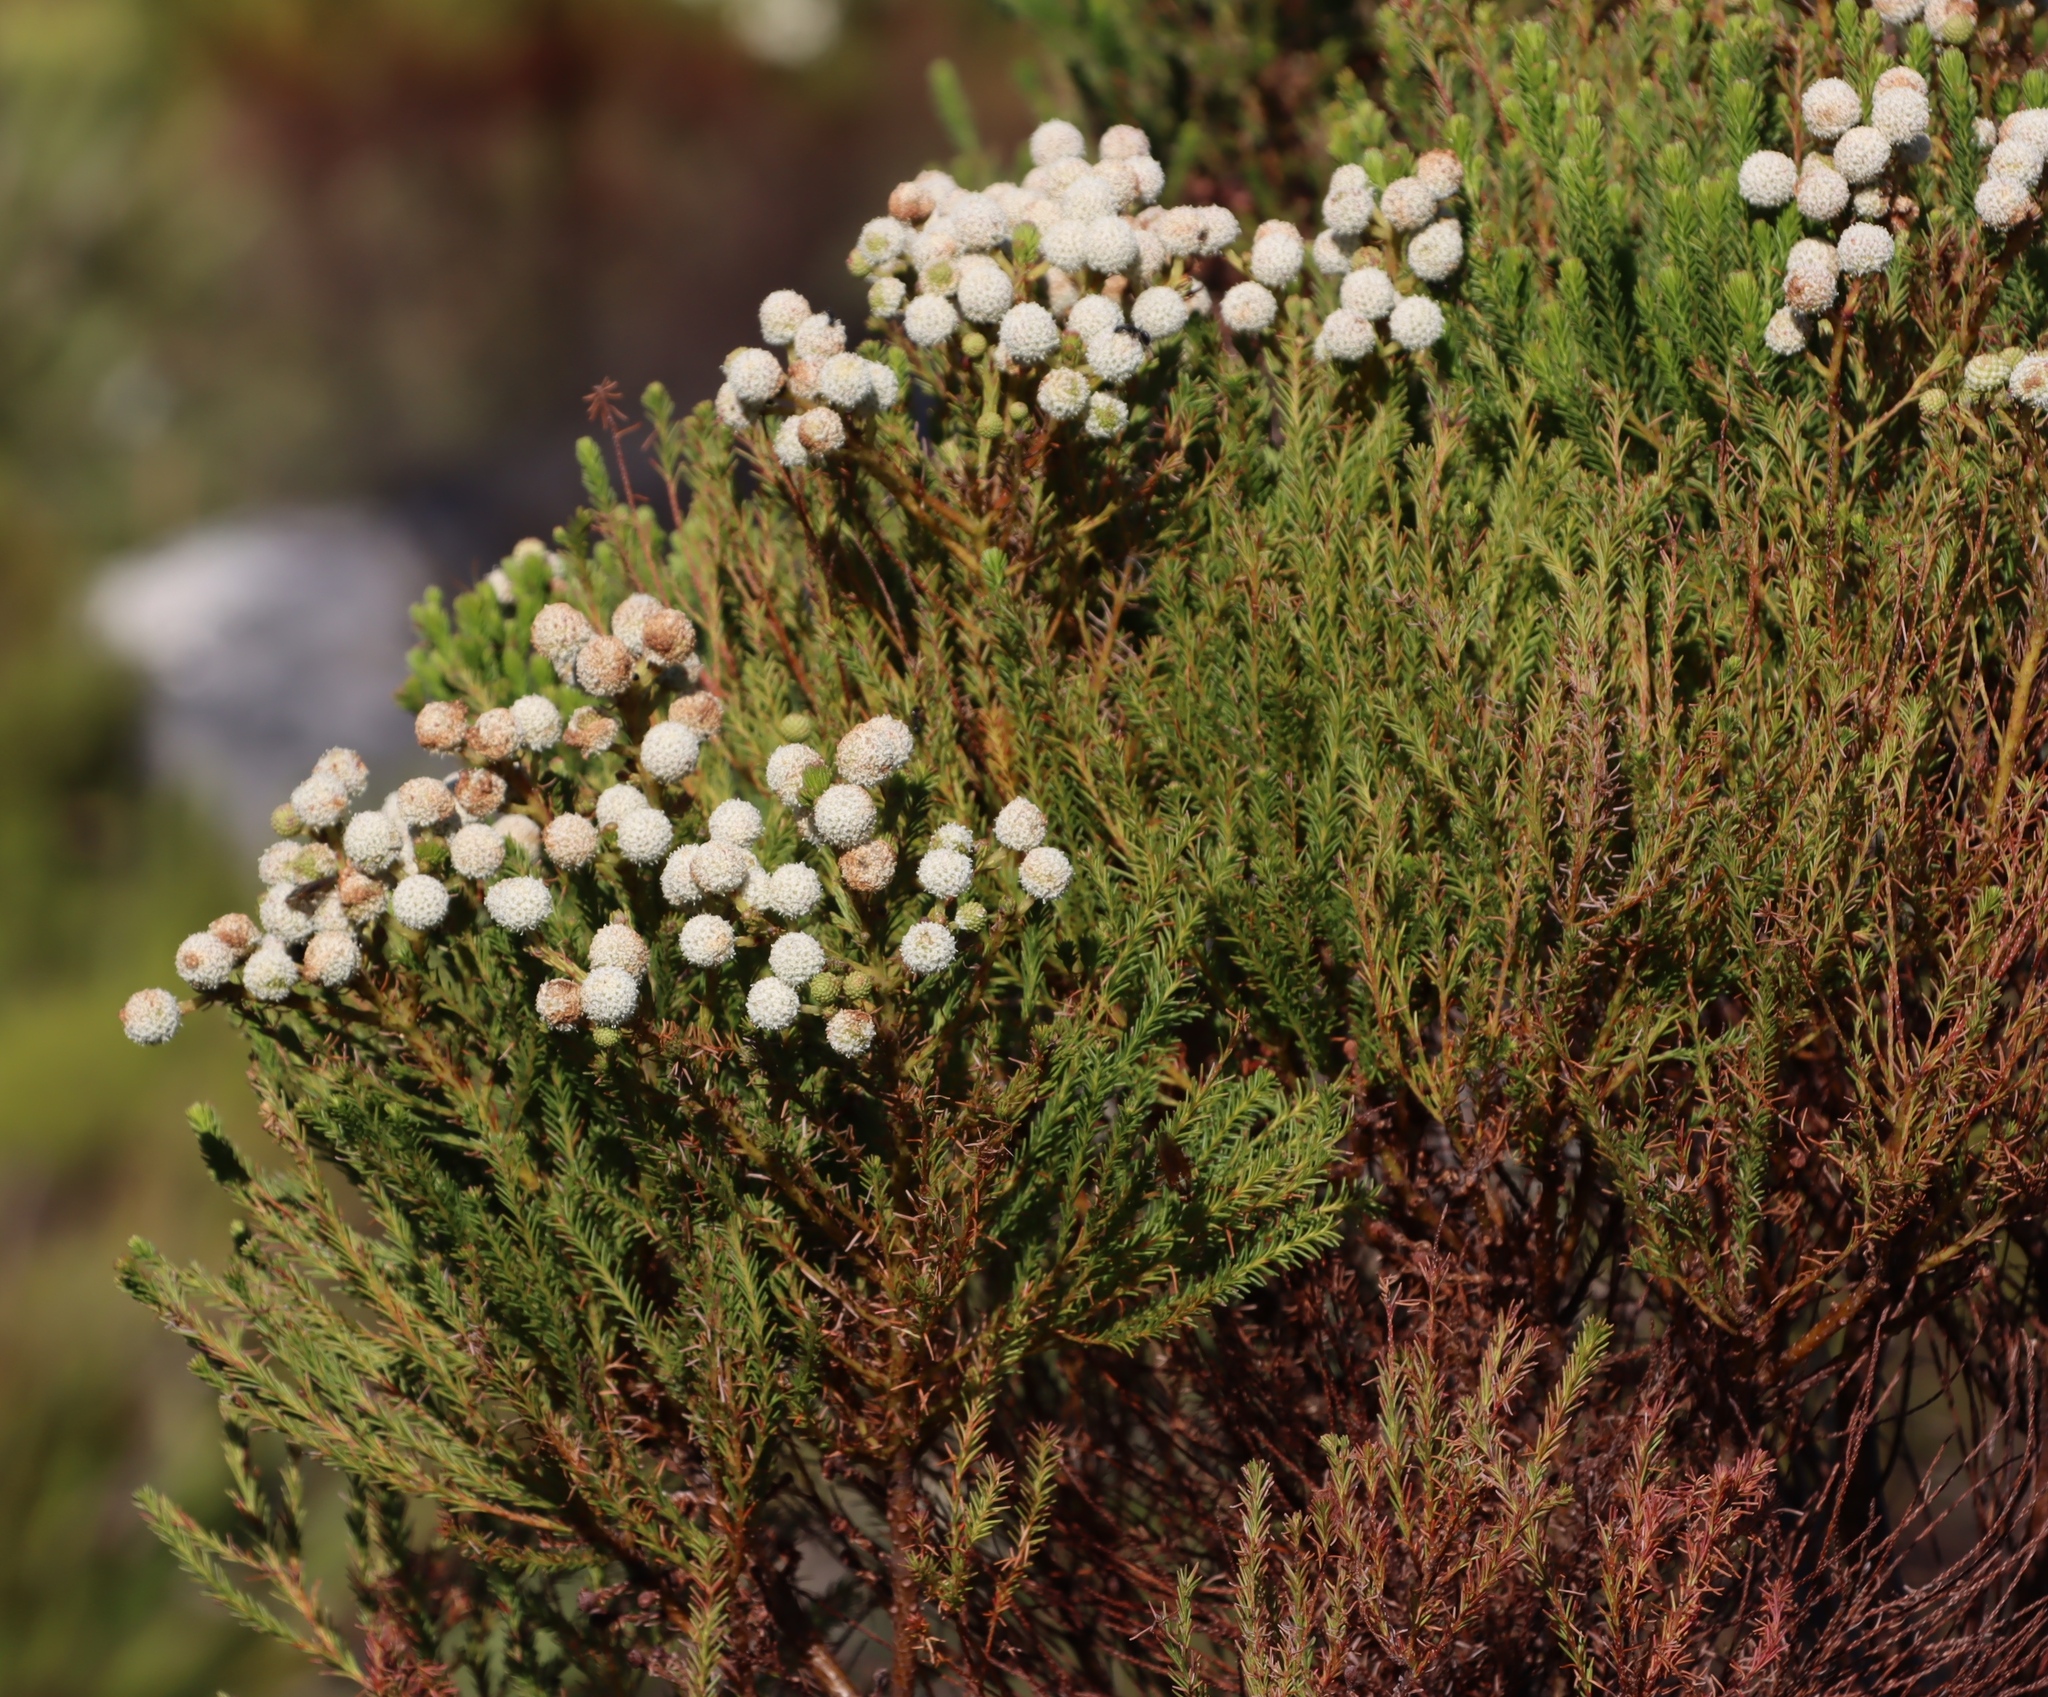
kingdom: Plantae
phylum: Tracheophyta
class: Magnoliopsida
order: Bruniales
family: Bruniaceae
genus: Berzelia
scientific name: Berzelia lanuginosa
